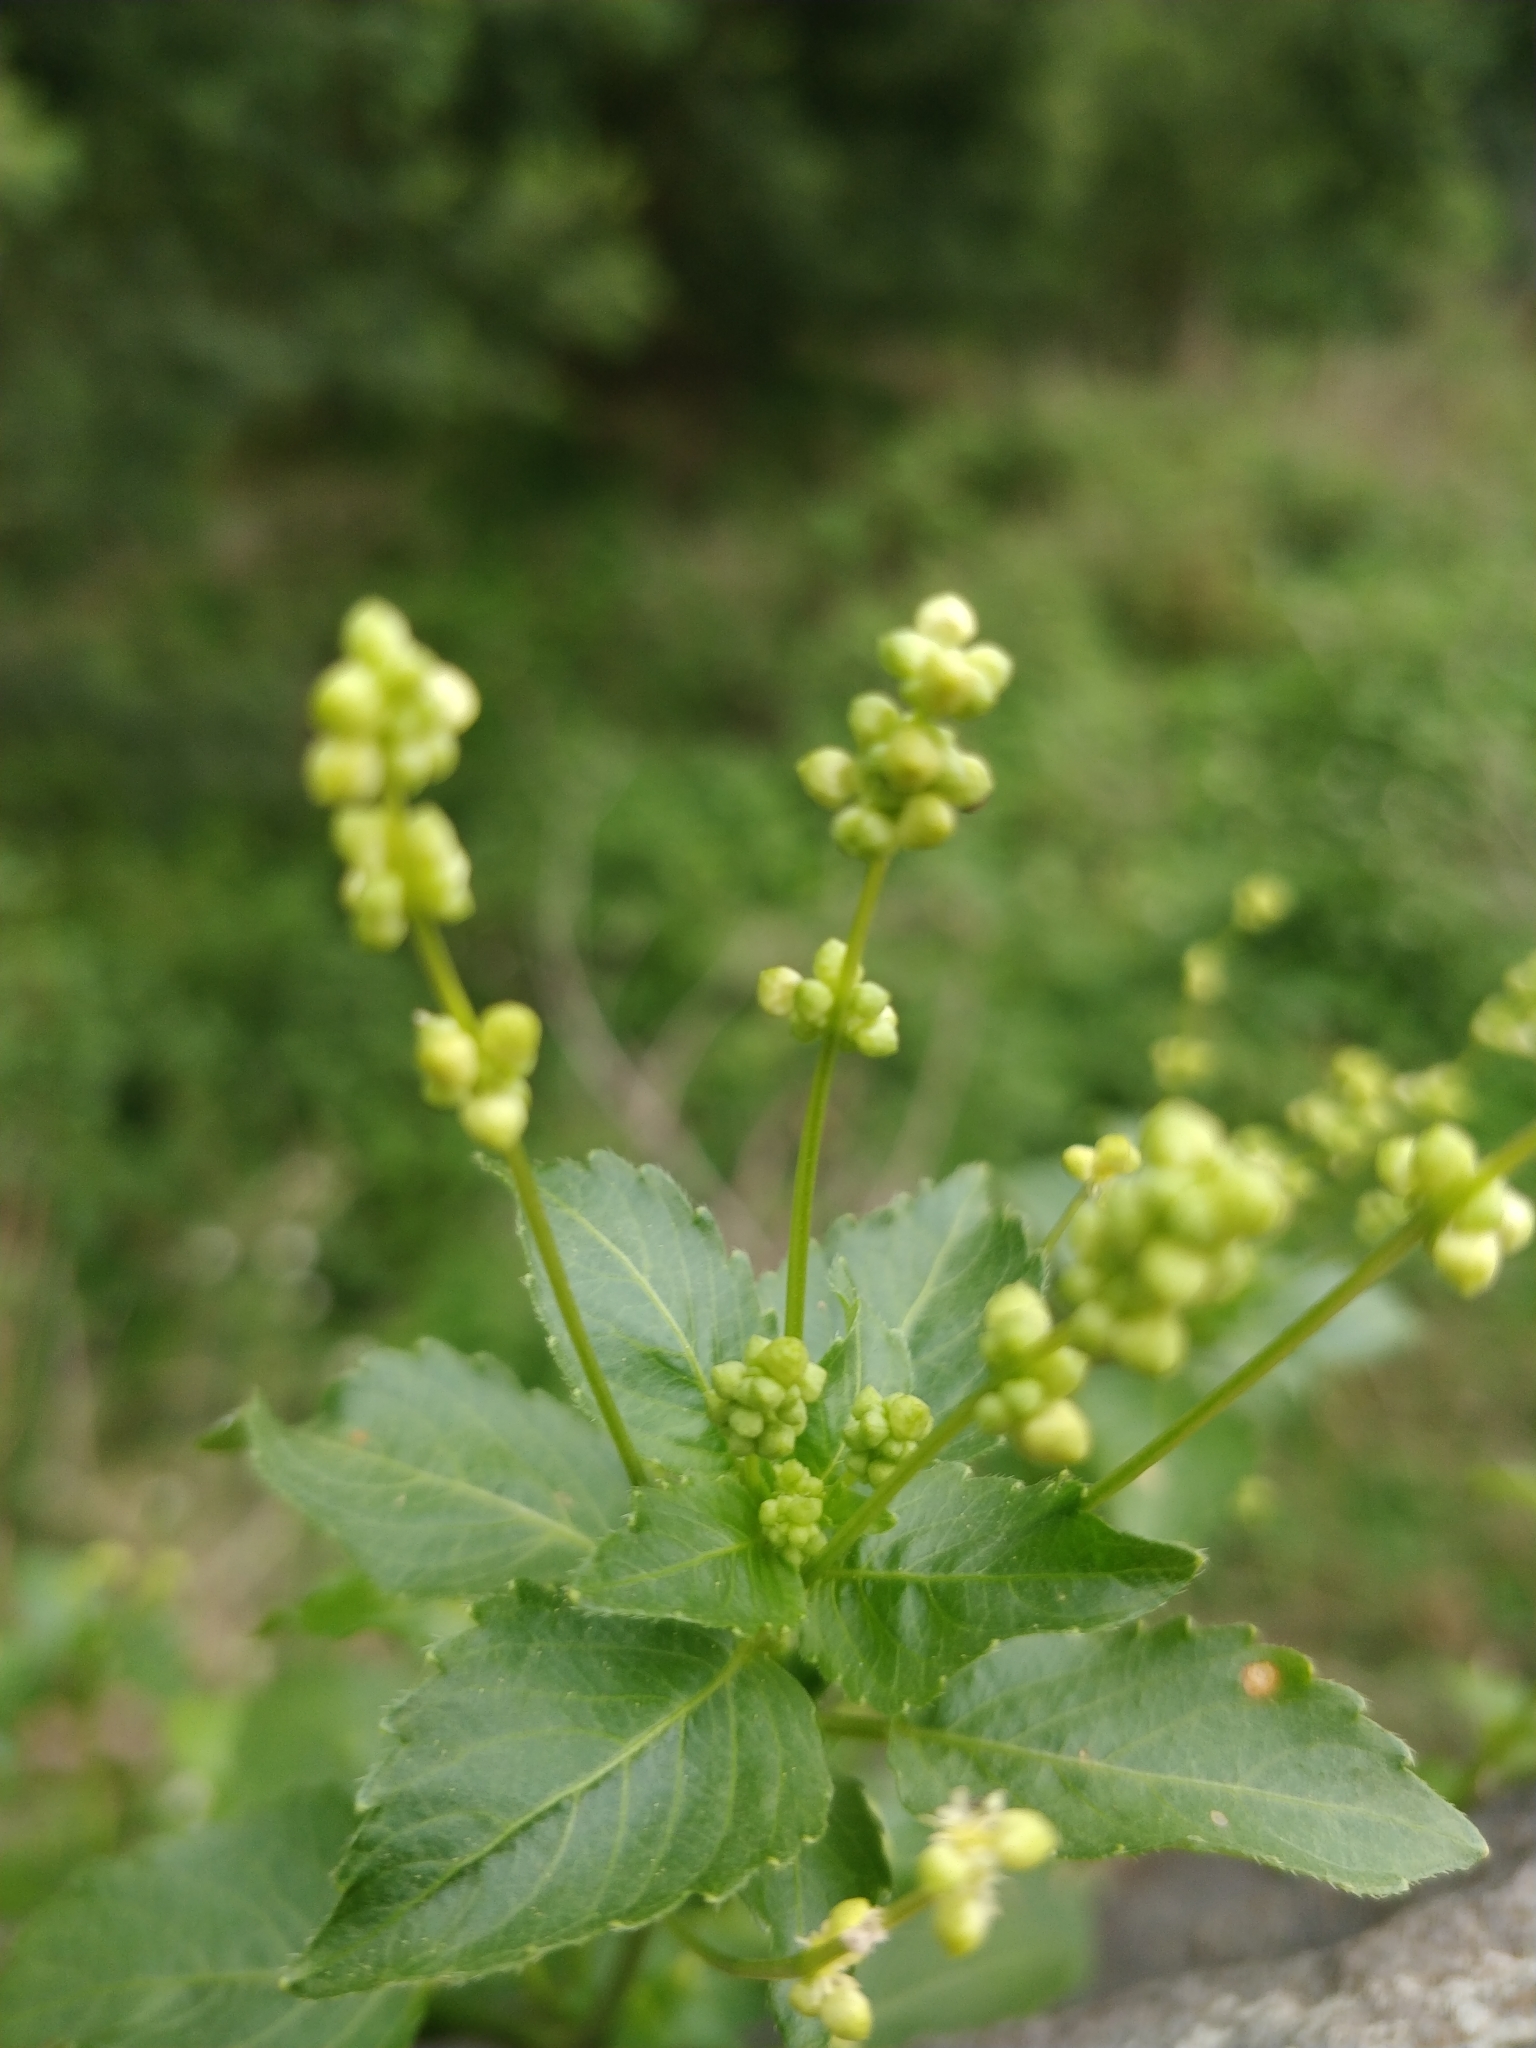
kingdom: Plantae
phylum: Tracheophyta
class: Magnoliopsida
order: Malpighiales
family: Euphorbiaceae
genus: Mercurialis
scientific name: Mercurialis annua
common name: Annual mercury
